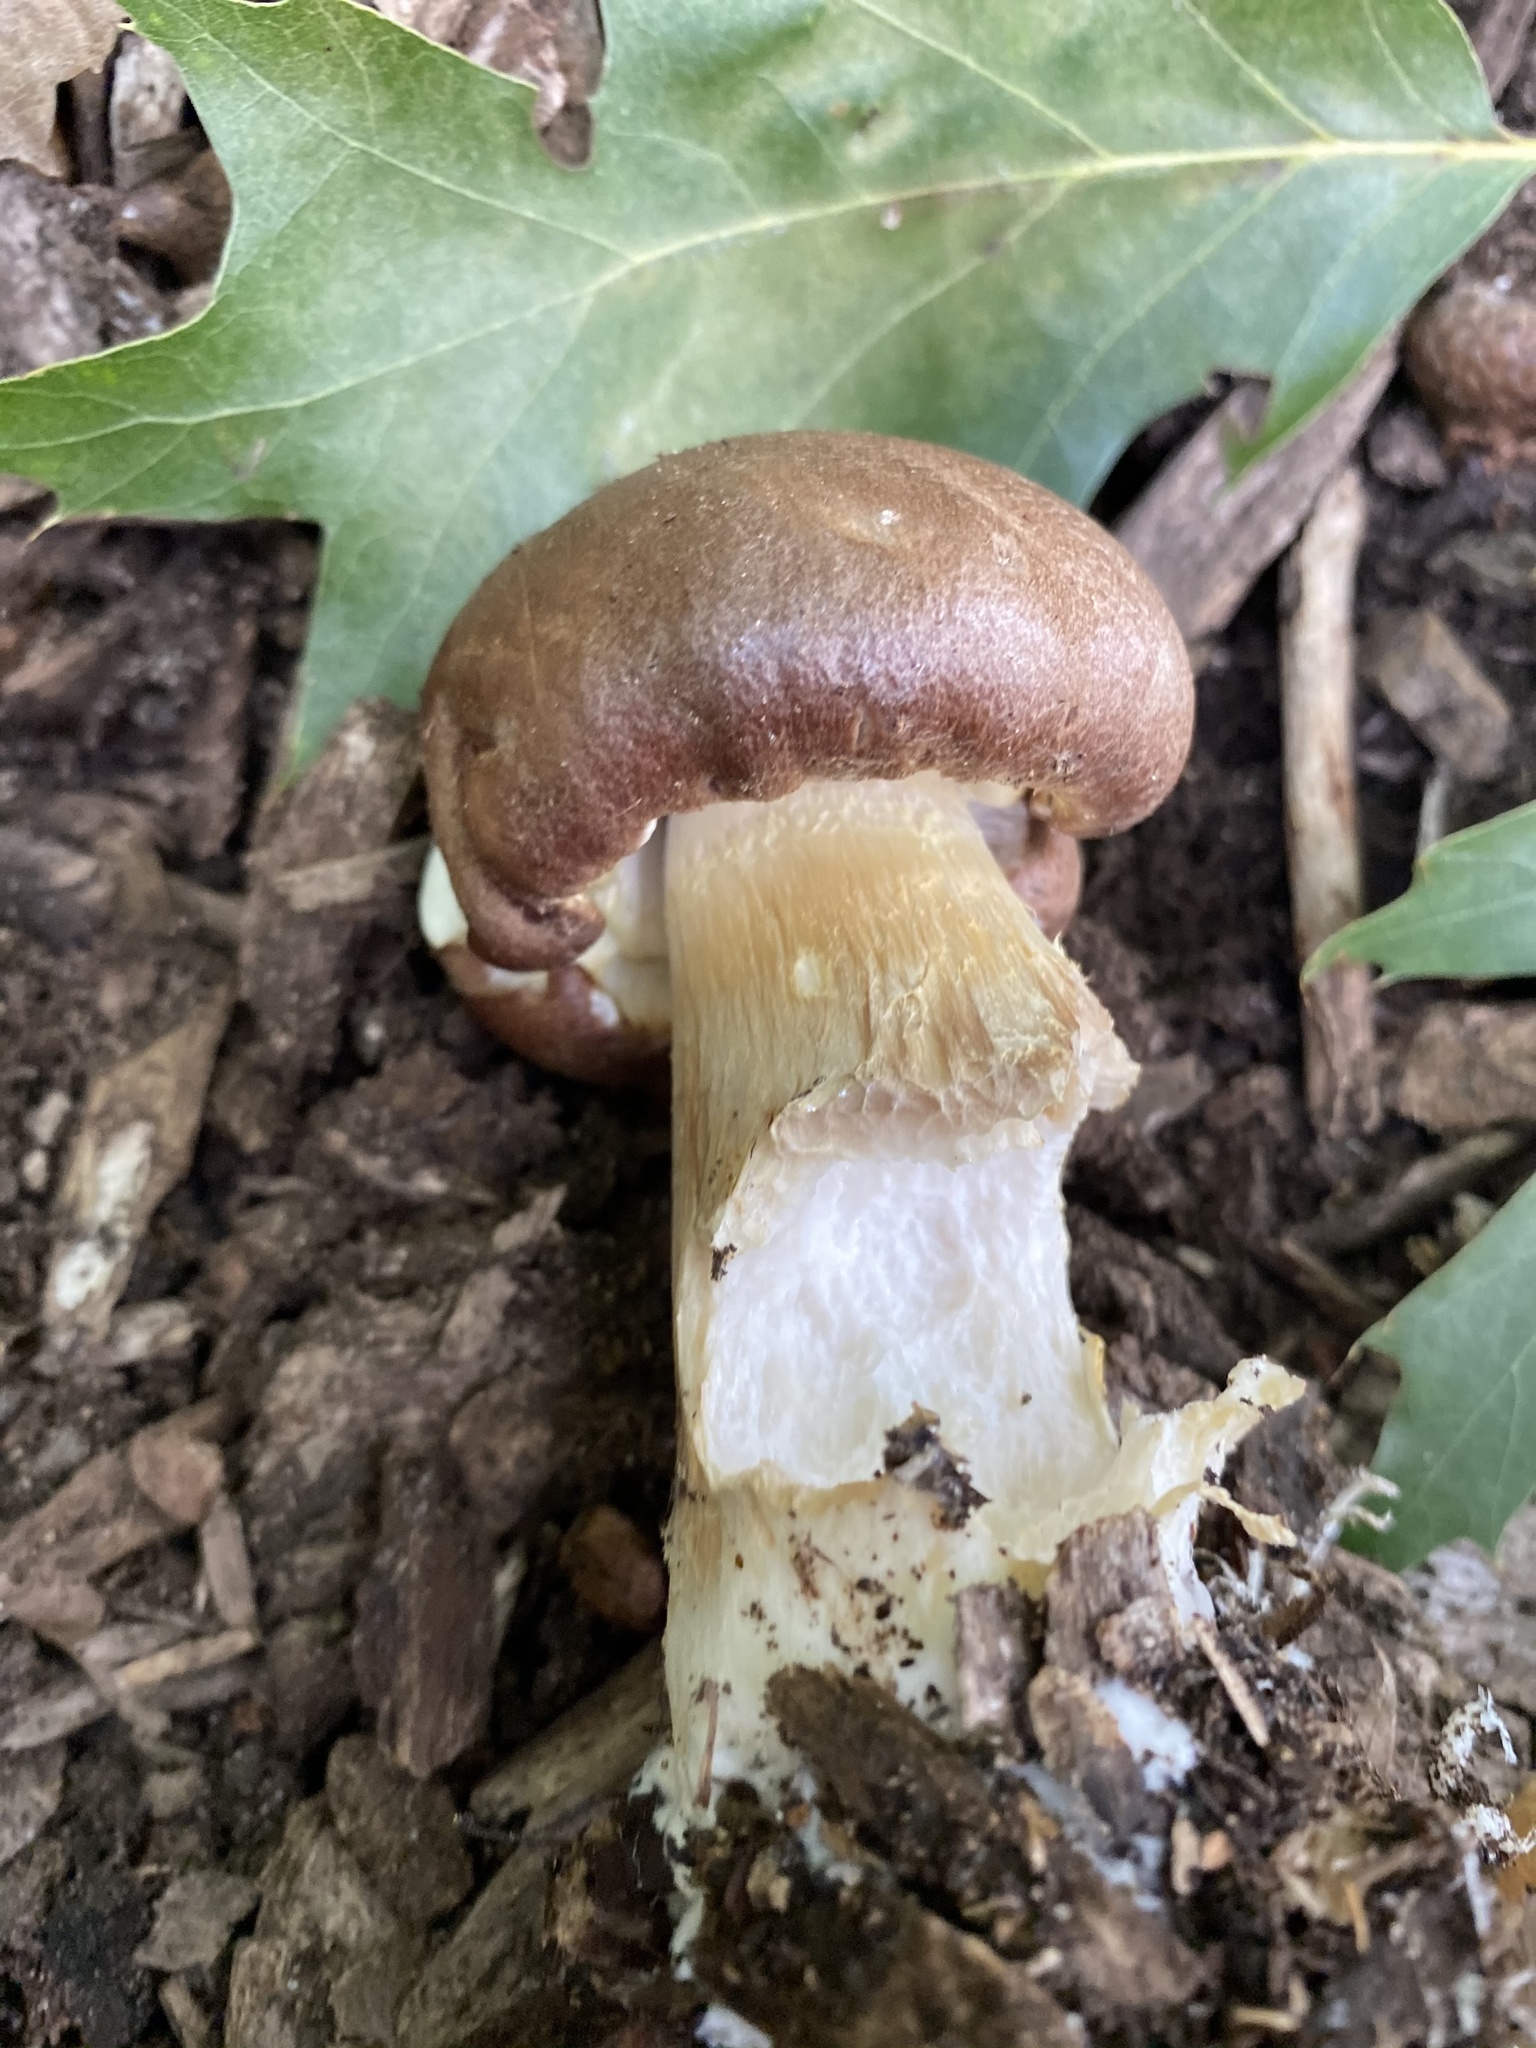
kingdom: Fungi
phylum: Basidiomycota
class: Agaricomycetes
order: Agaricales
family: Strophariaceae
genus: Stropharia
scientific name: Stropharia rugosoannulata
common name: Wine roundhead
